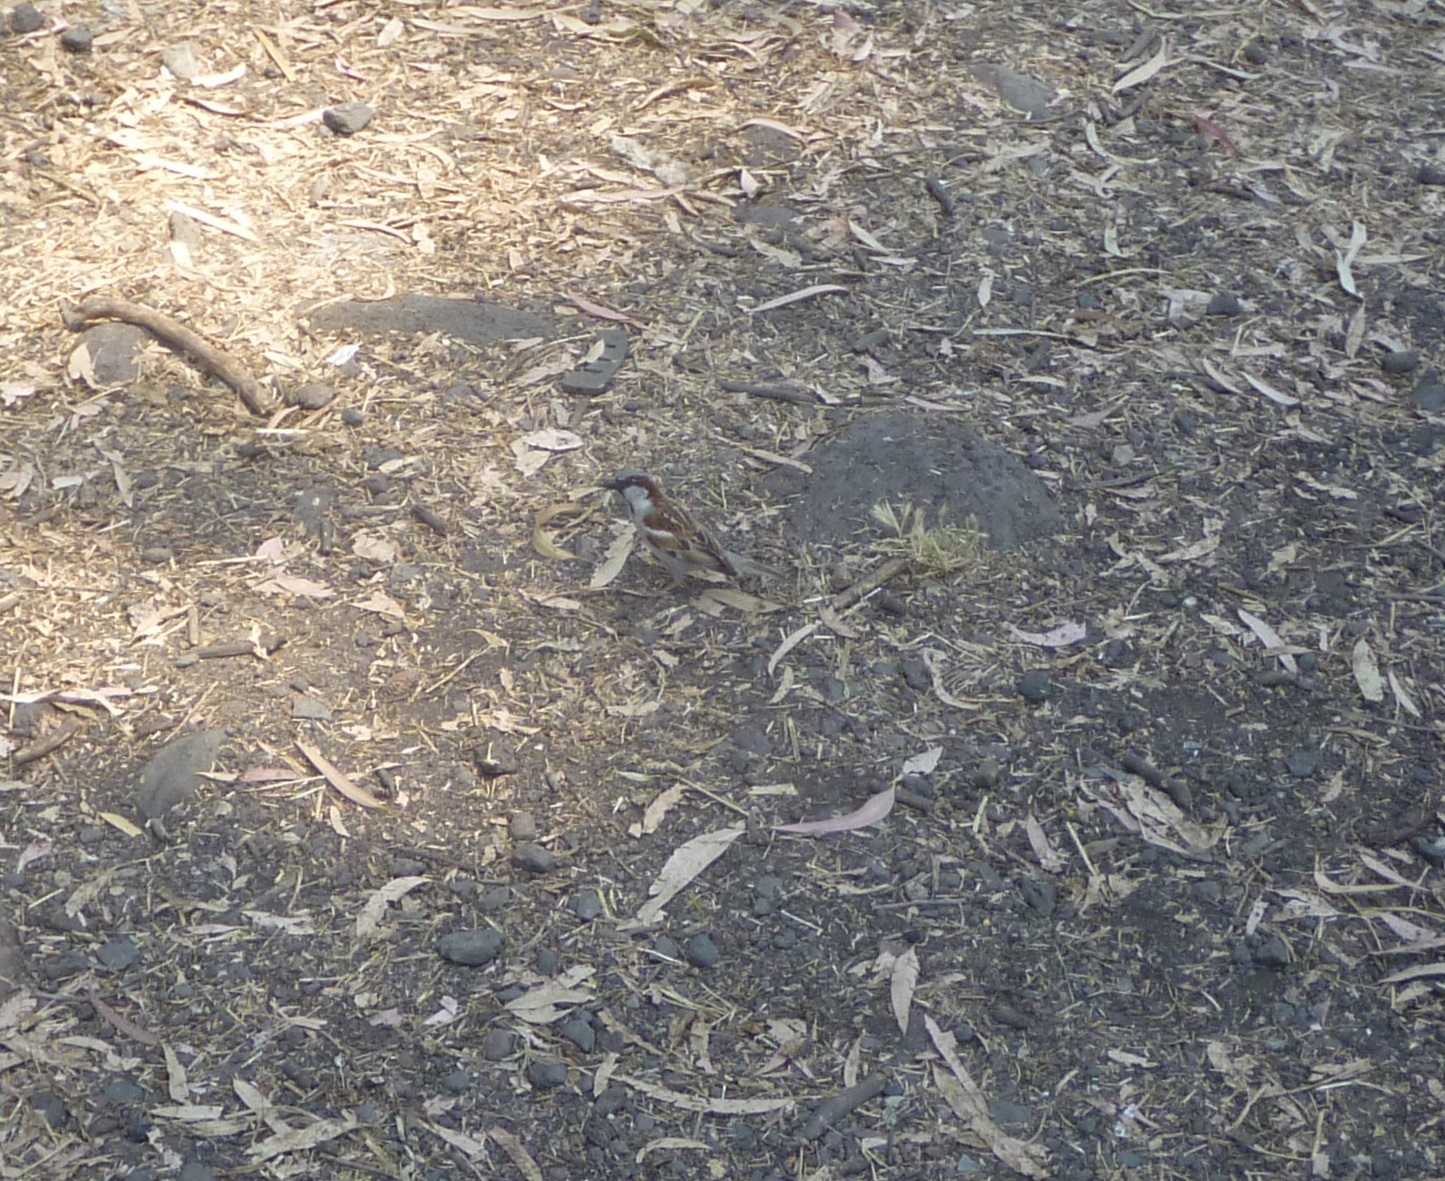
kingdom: Animalia
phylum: Chordata
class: Aves
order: Passeriformes
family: Passeridae
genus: Passer
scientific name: Passer domesticus
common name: House sparrow
